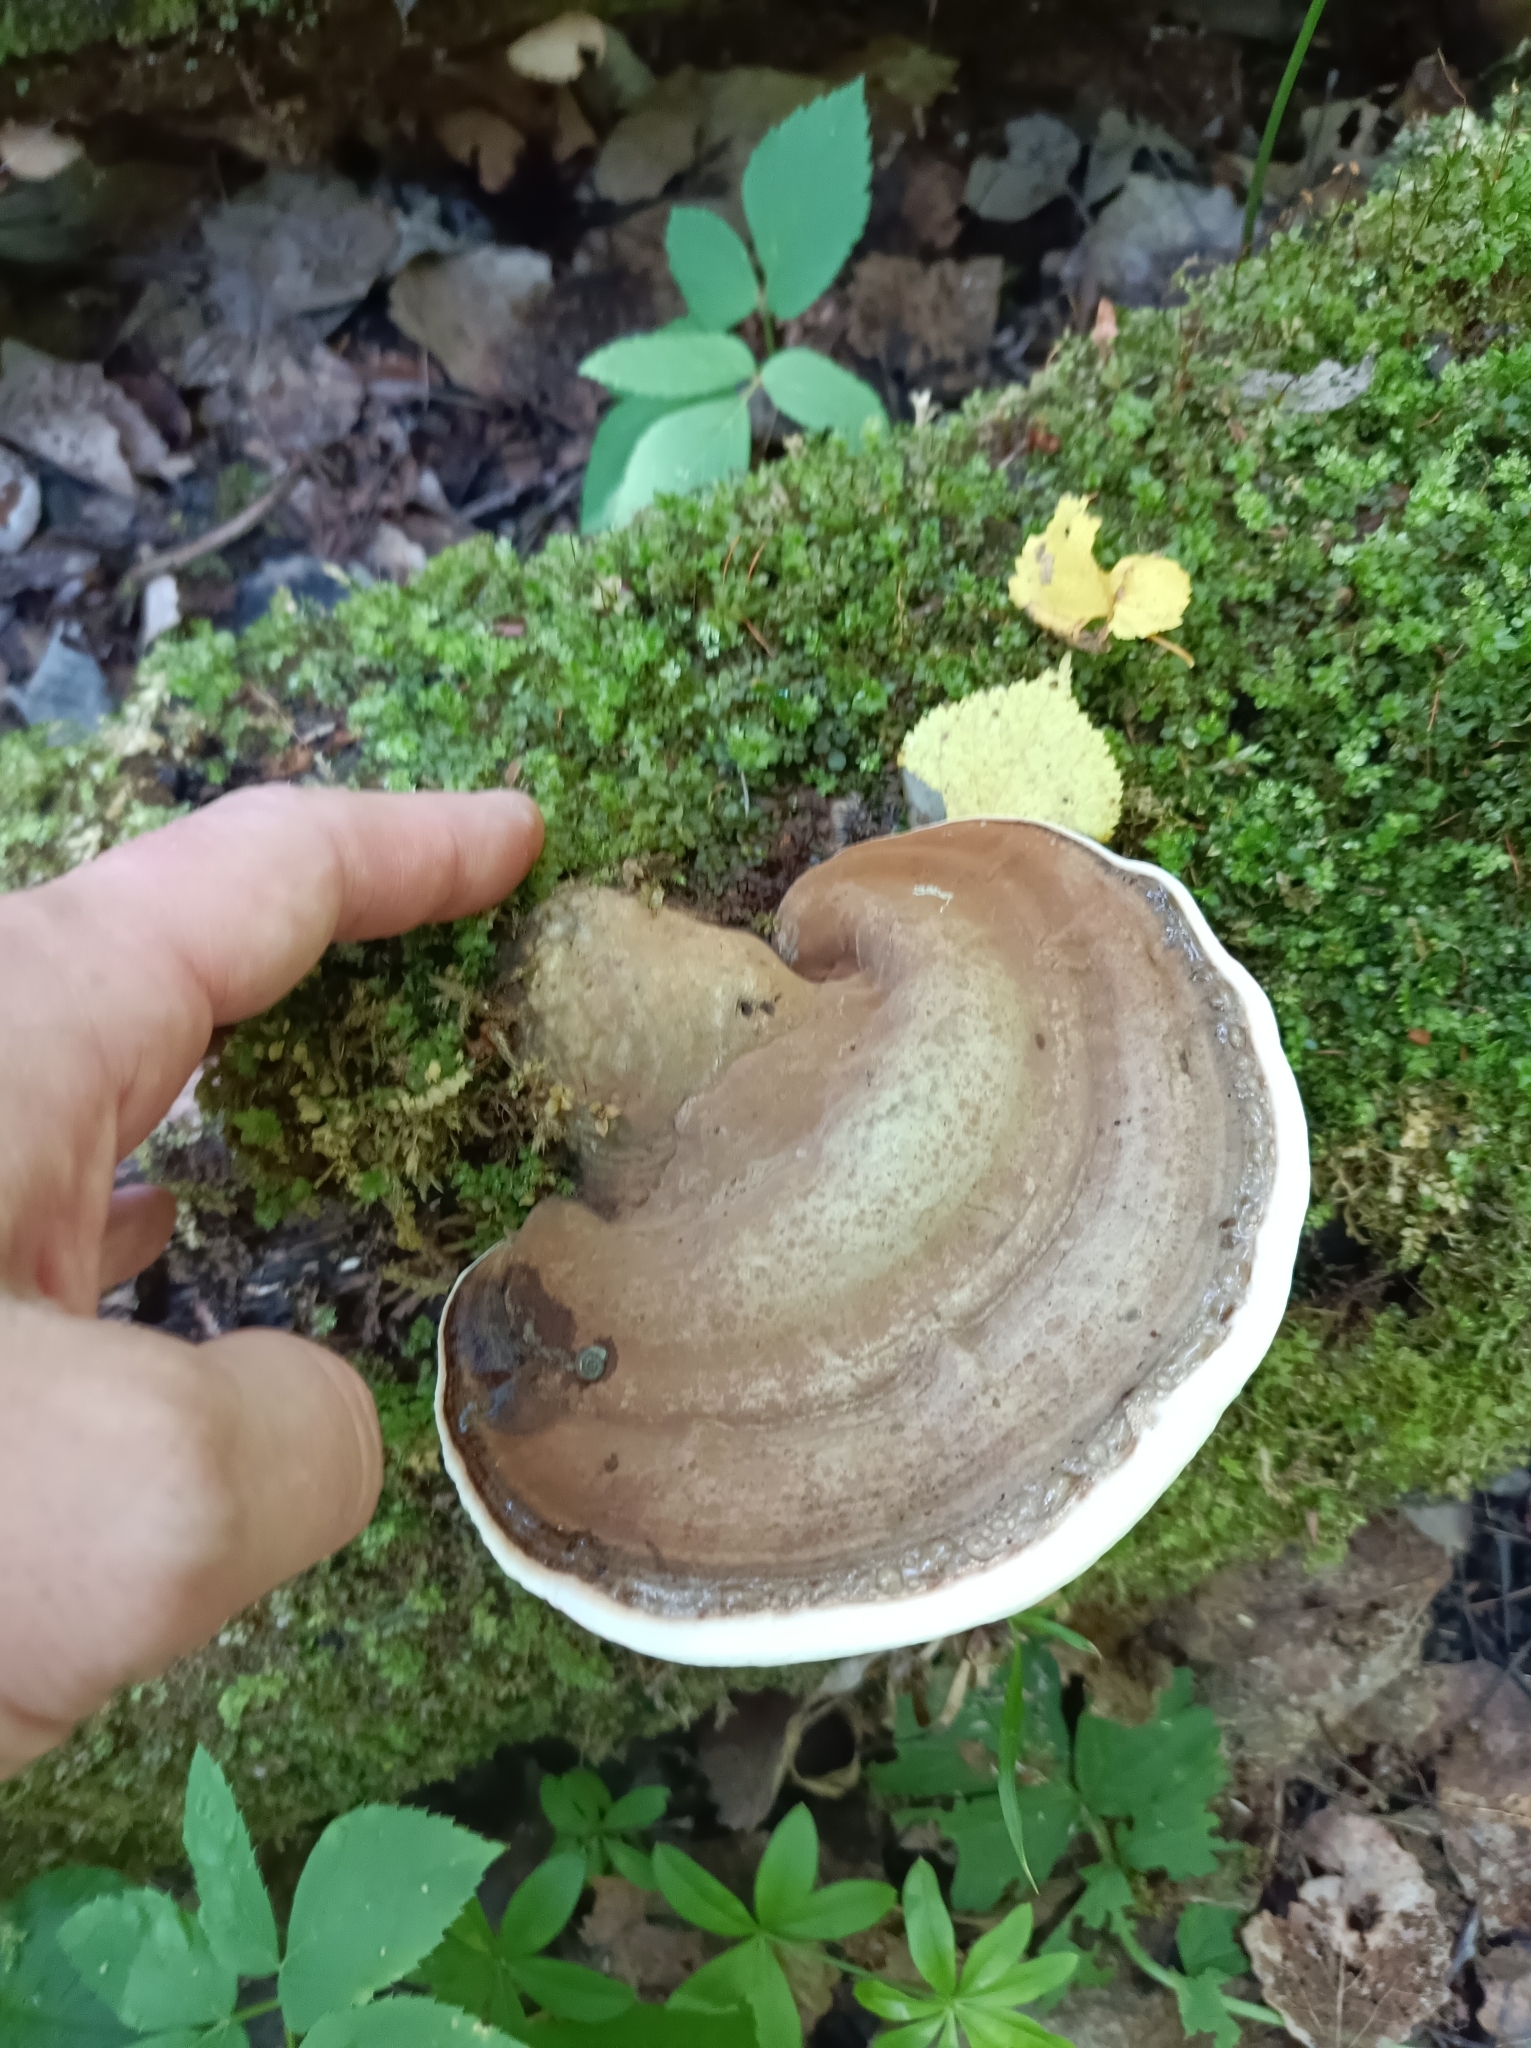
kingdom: Fungi
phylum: Basidiomycota
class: Agaricomycetes
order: Polyporales
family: Polyporaceae
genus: Ganoderma
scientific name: Ganoderma lobatum
